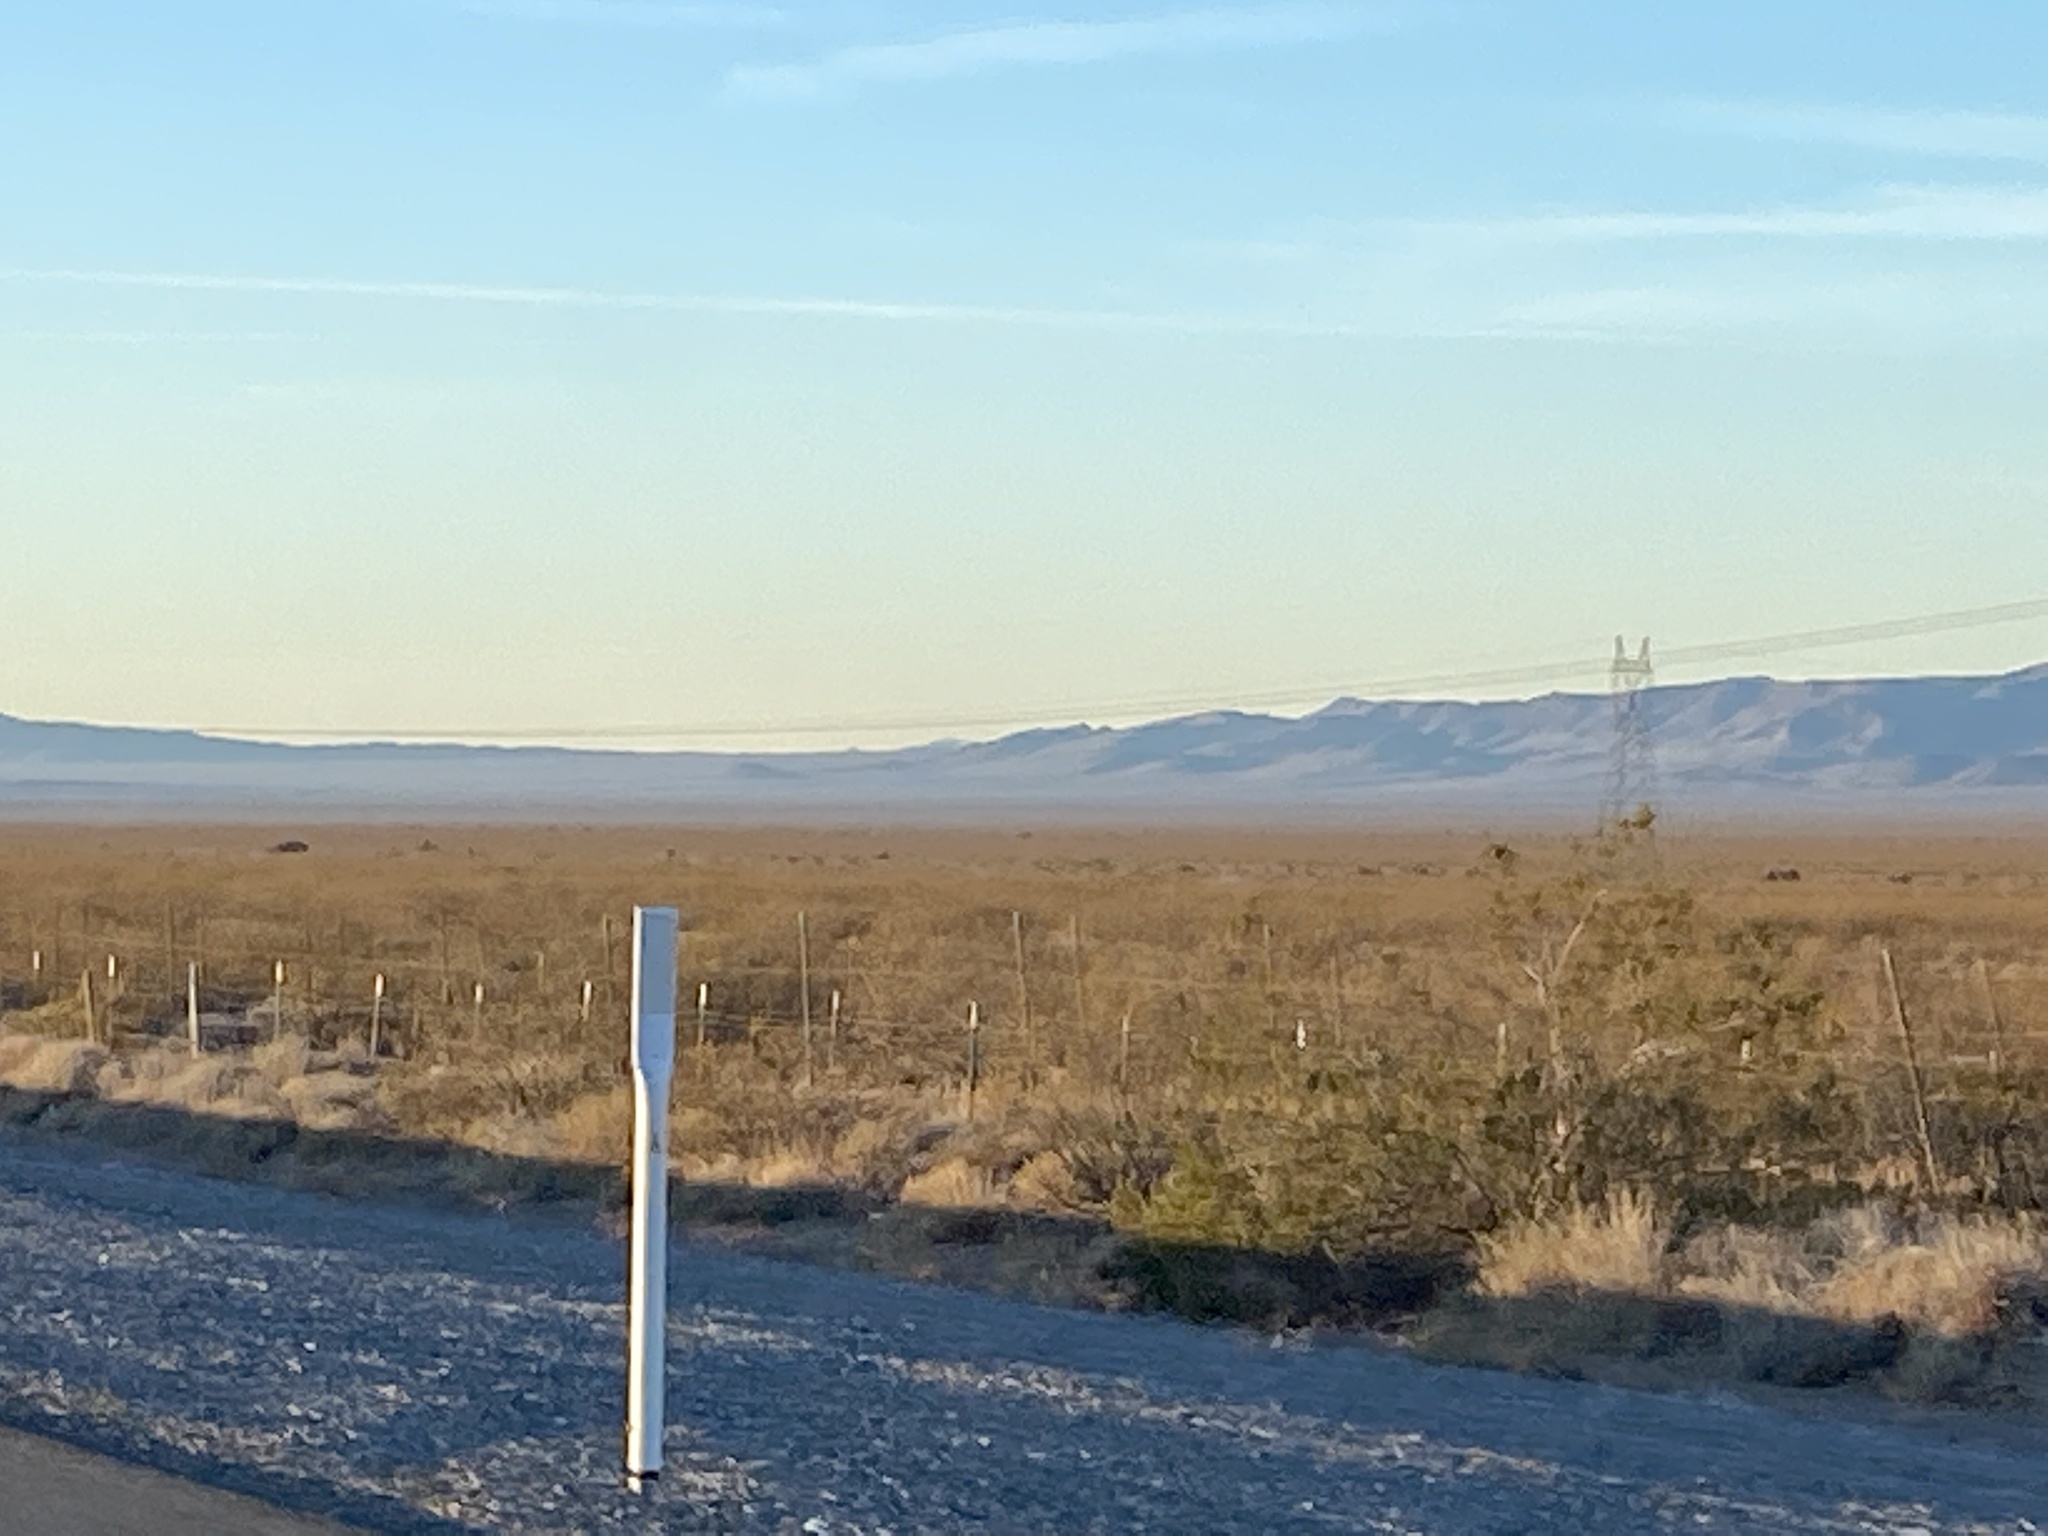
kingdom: Plantae
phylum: Tracheophyta
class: Magnoliopsida
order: Zygophyllales
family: Zygophyllaceae
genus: Larrea
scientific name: Larrea tridentata
